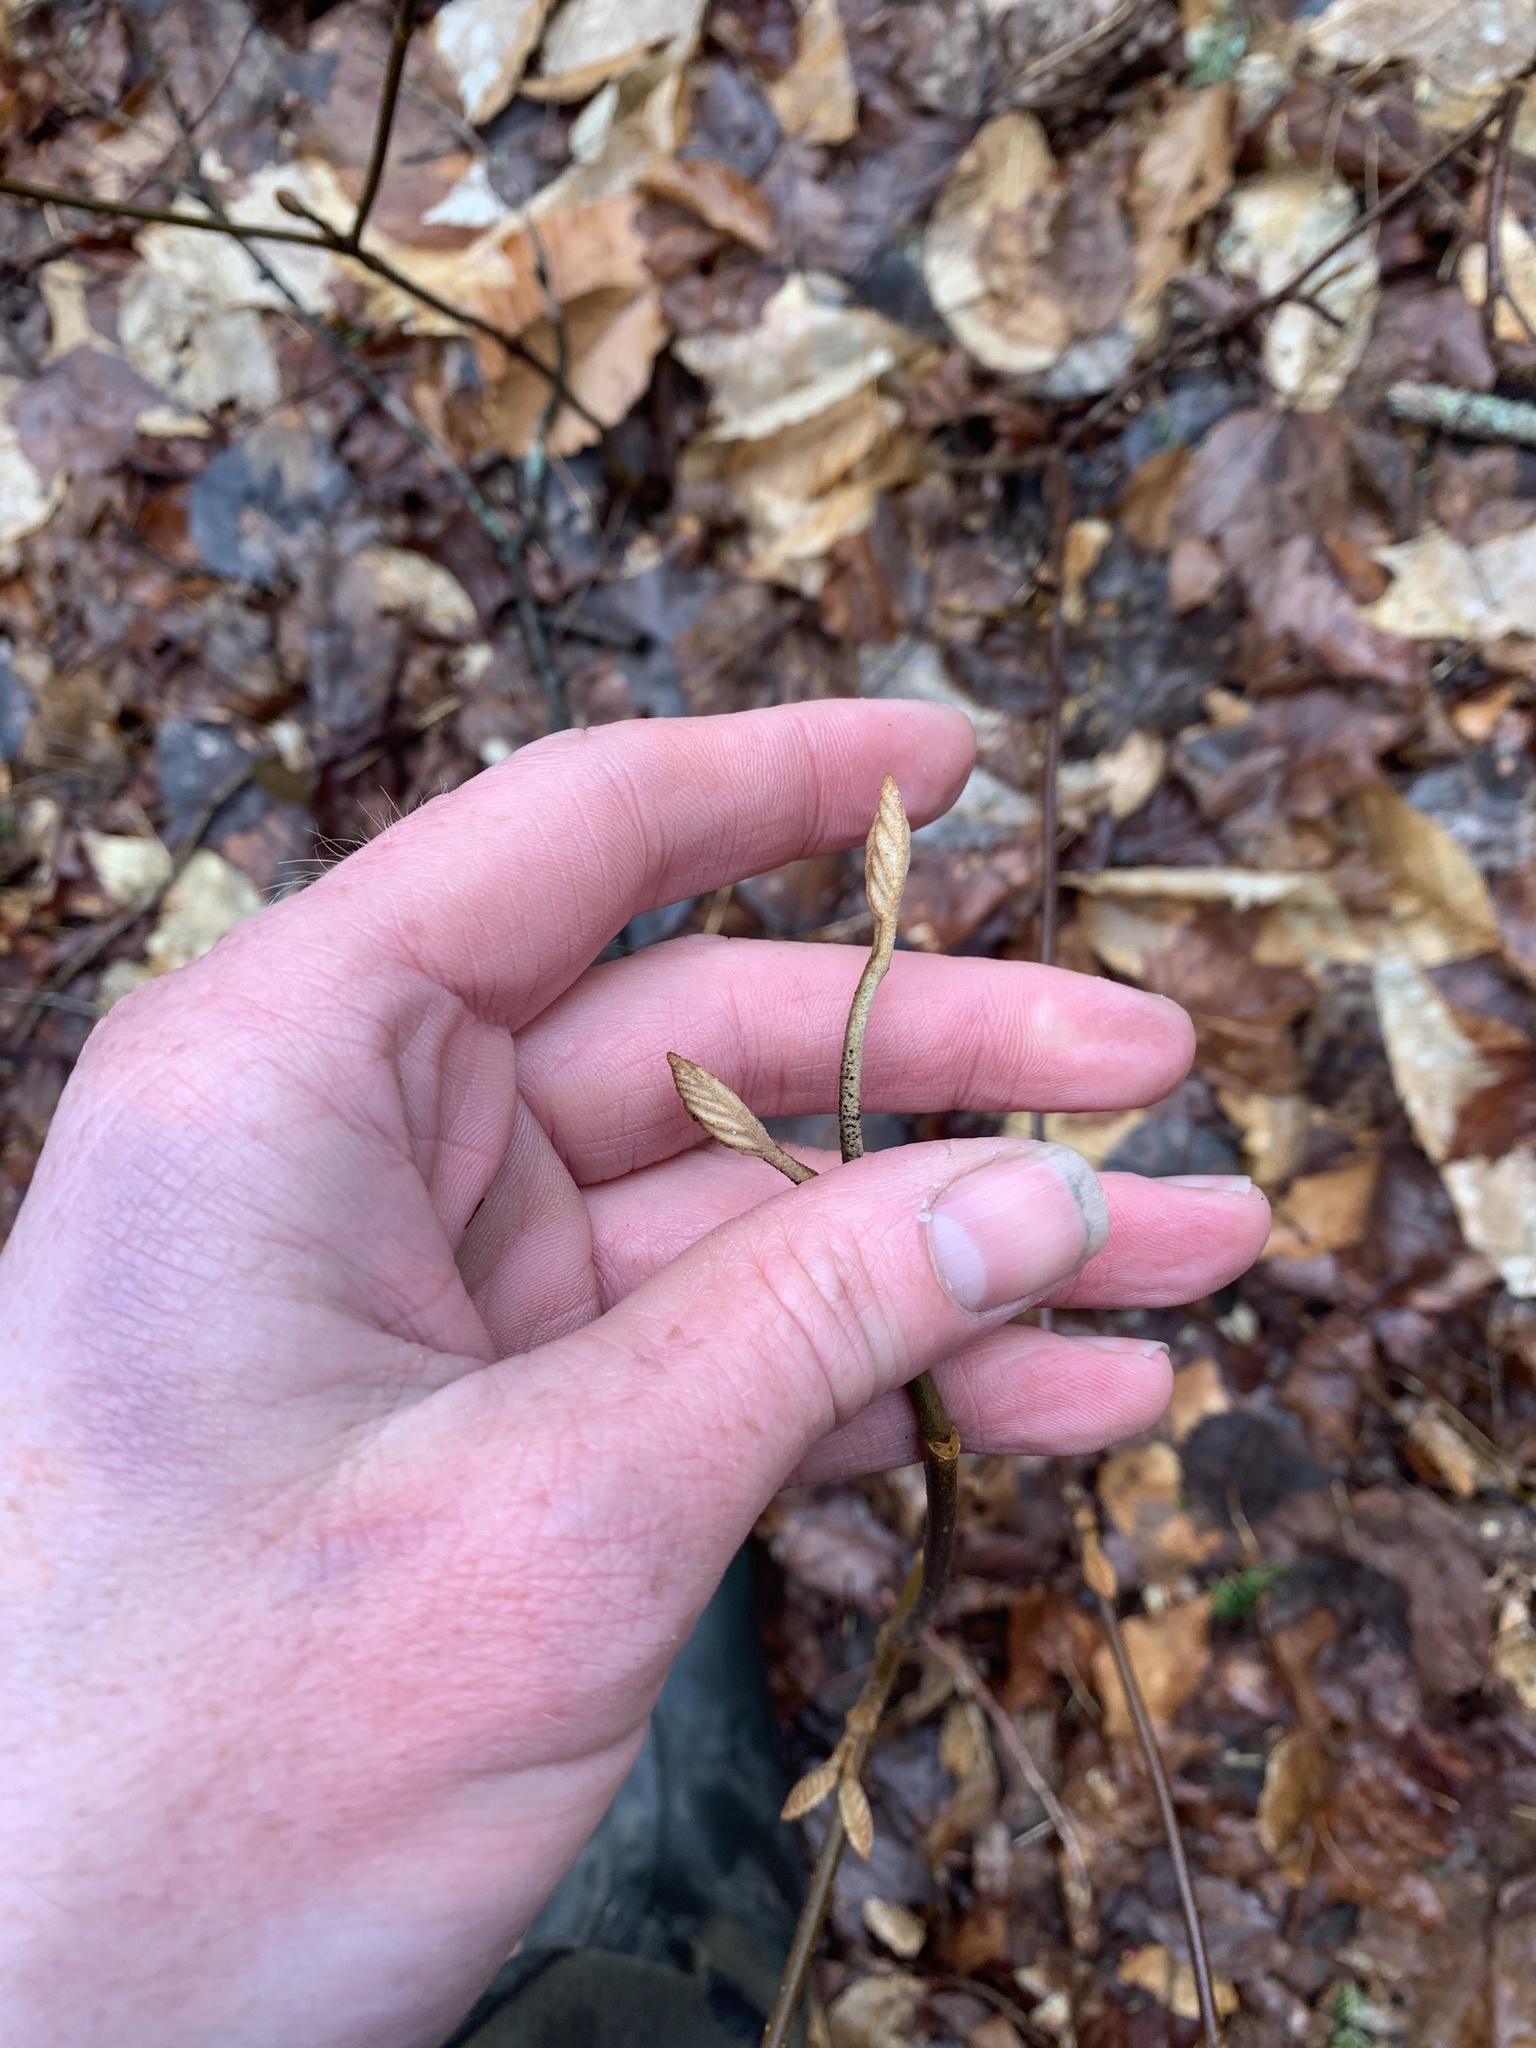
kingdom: Plantae
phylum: Tracheophyta
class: Magnoliopsida
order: Dipsacales
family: Viburnaceae
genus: Viburnum
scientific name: Viburnum lantanoides
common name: Hobblebush
